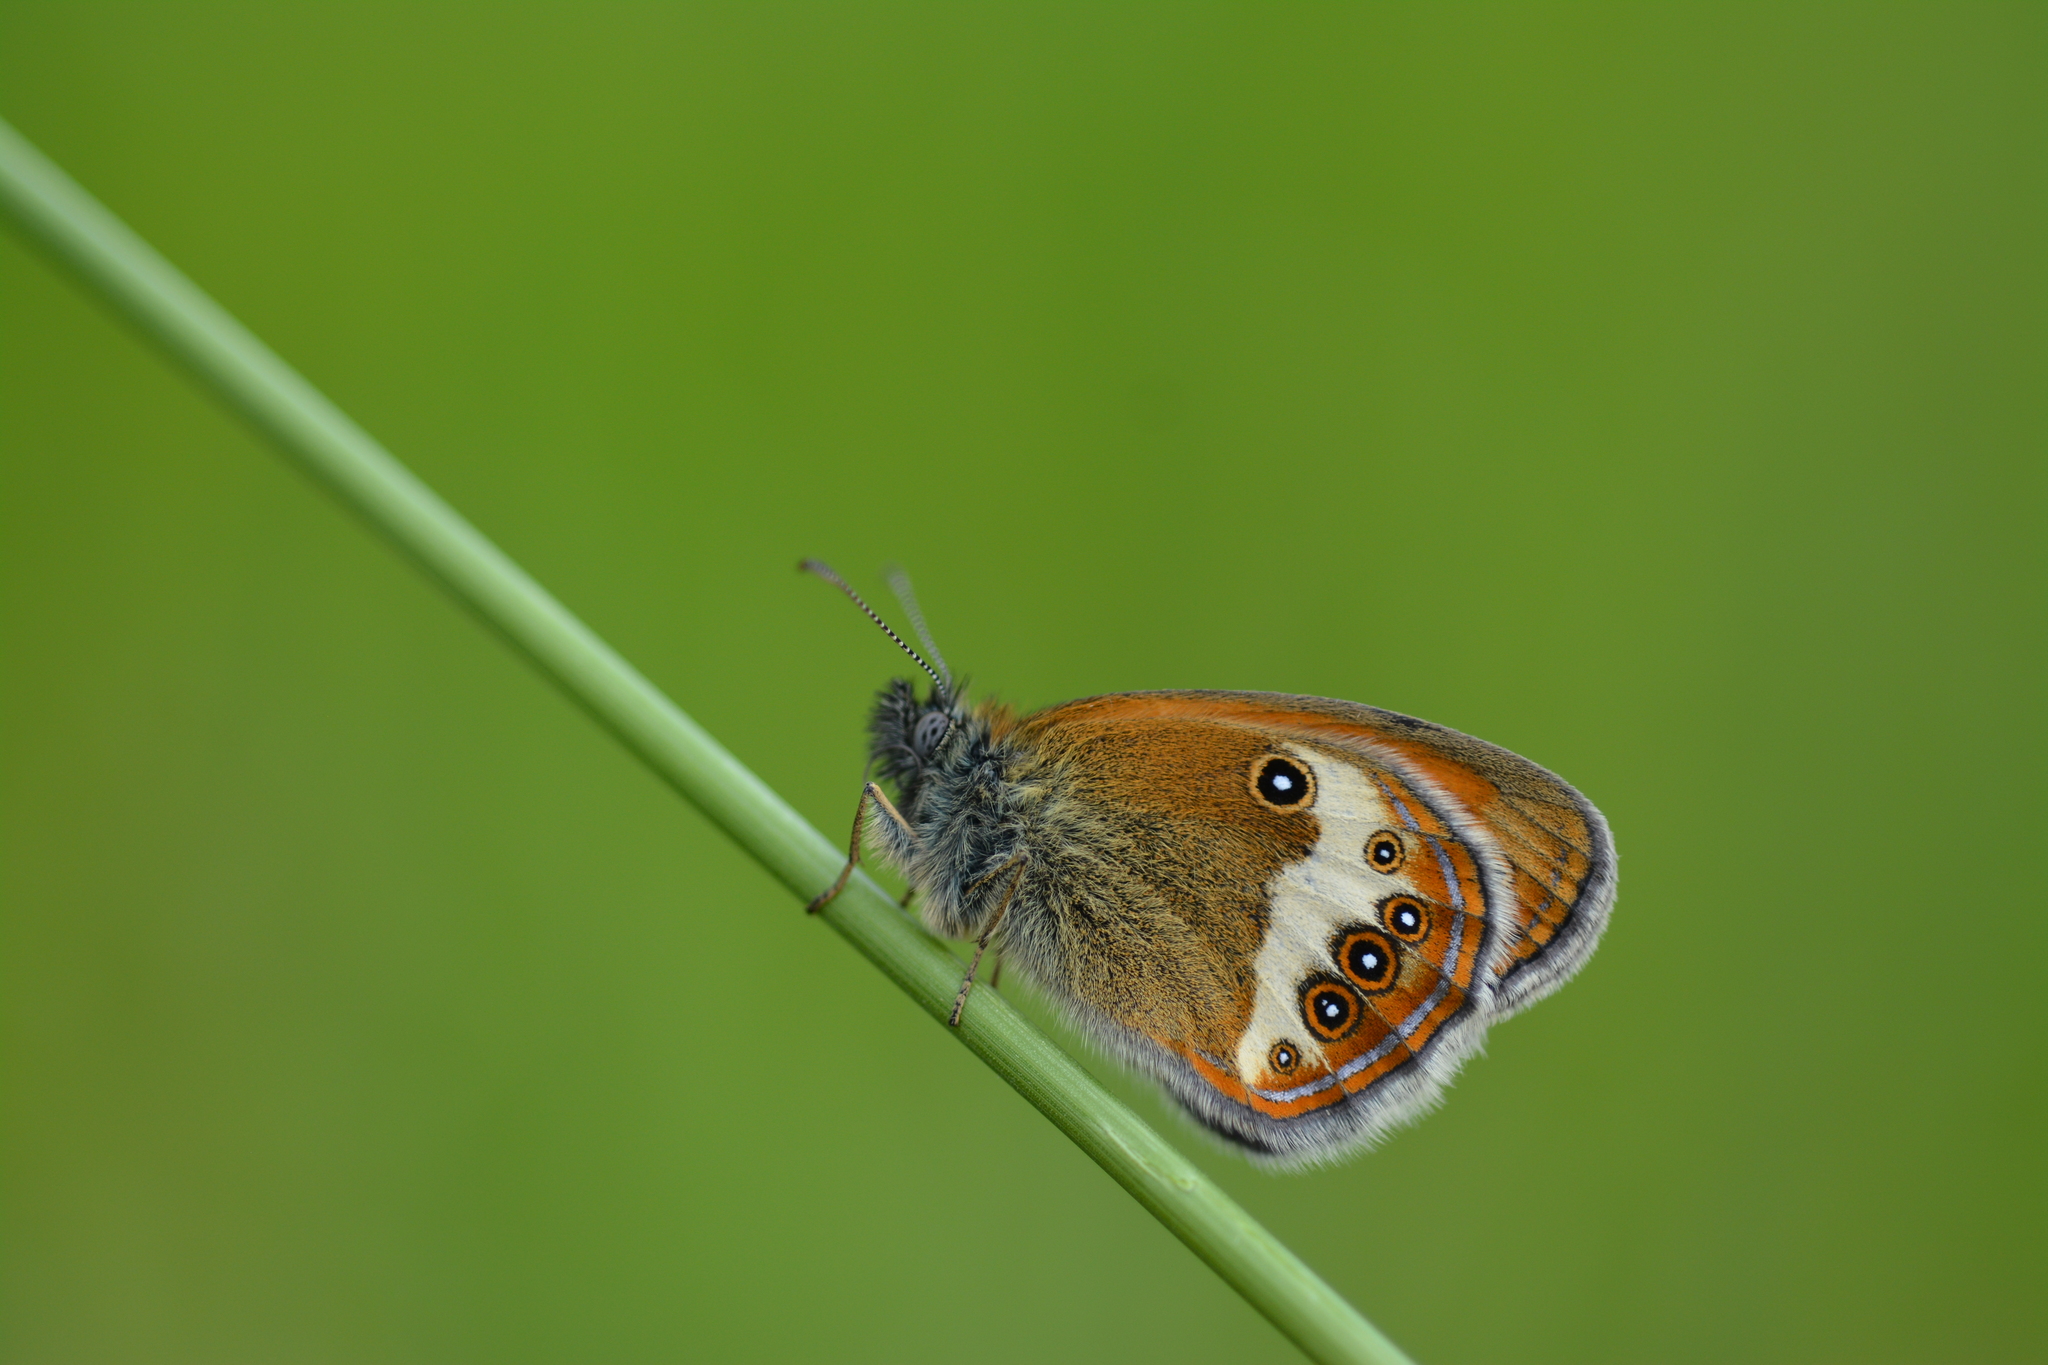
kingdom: Animalia
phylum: Arthropoda
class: Insecta
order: Lepidoptera
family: Nymphalidae
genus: Coenonympha
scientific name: Coenonympha arcania
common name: Pearly heath
